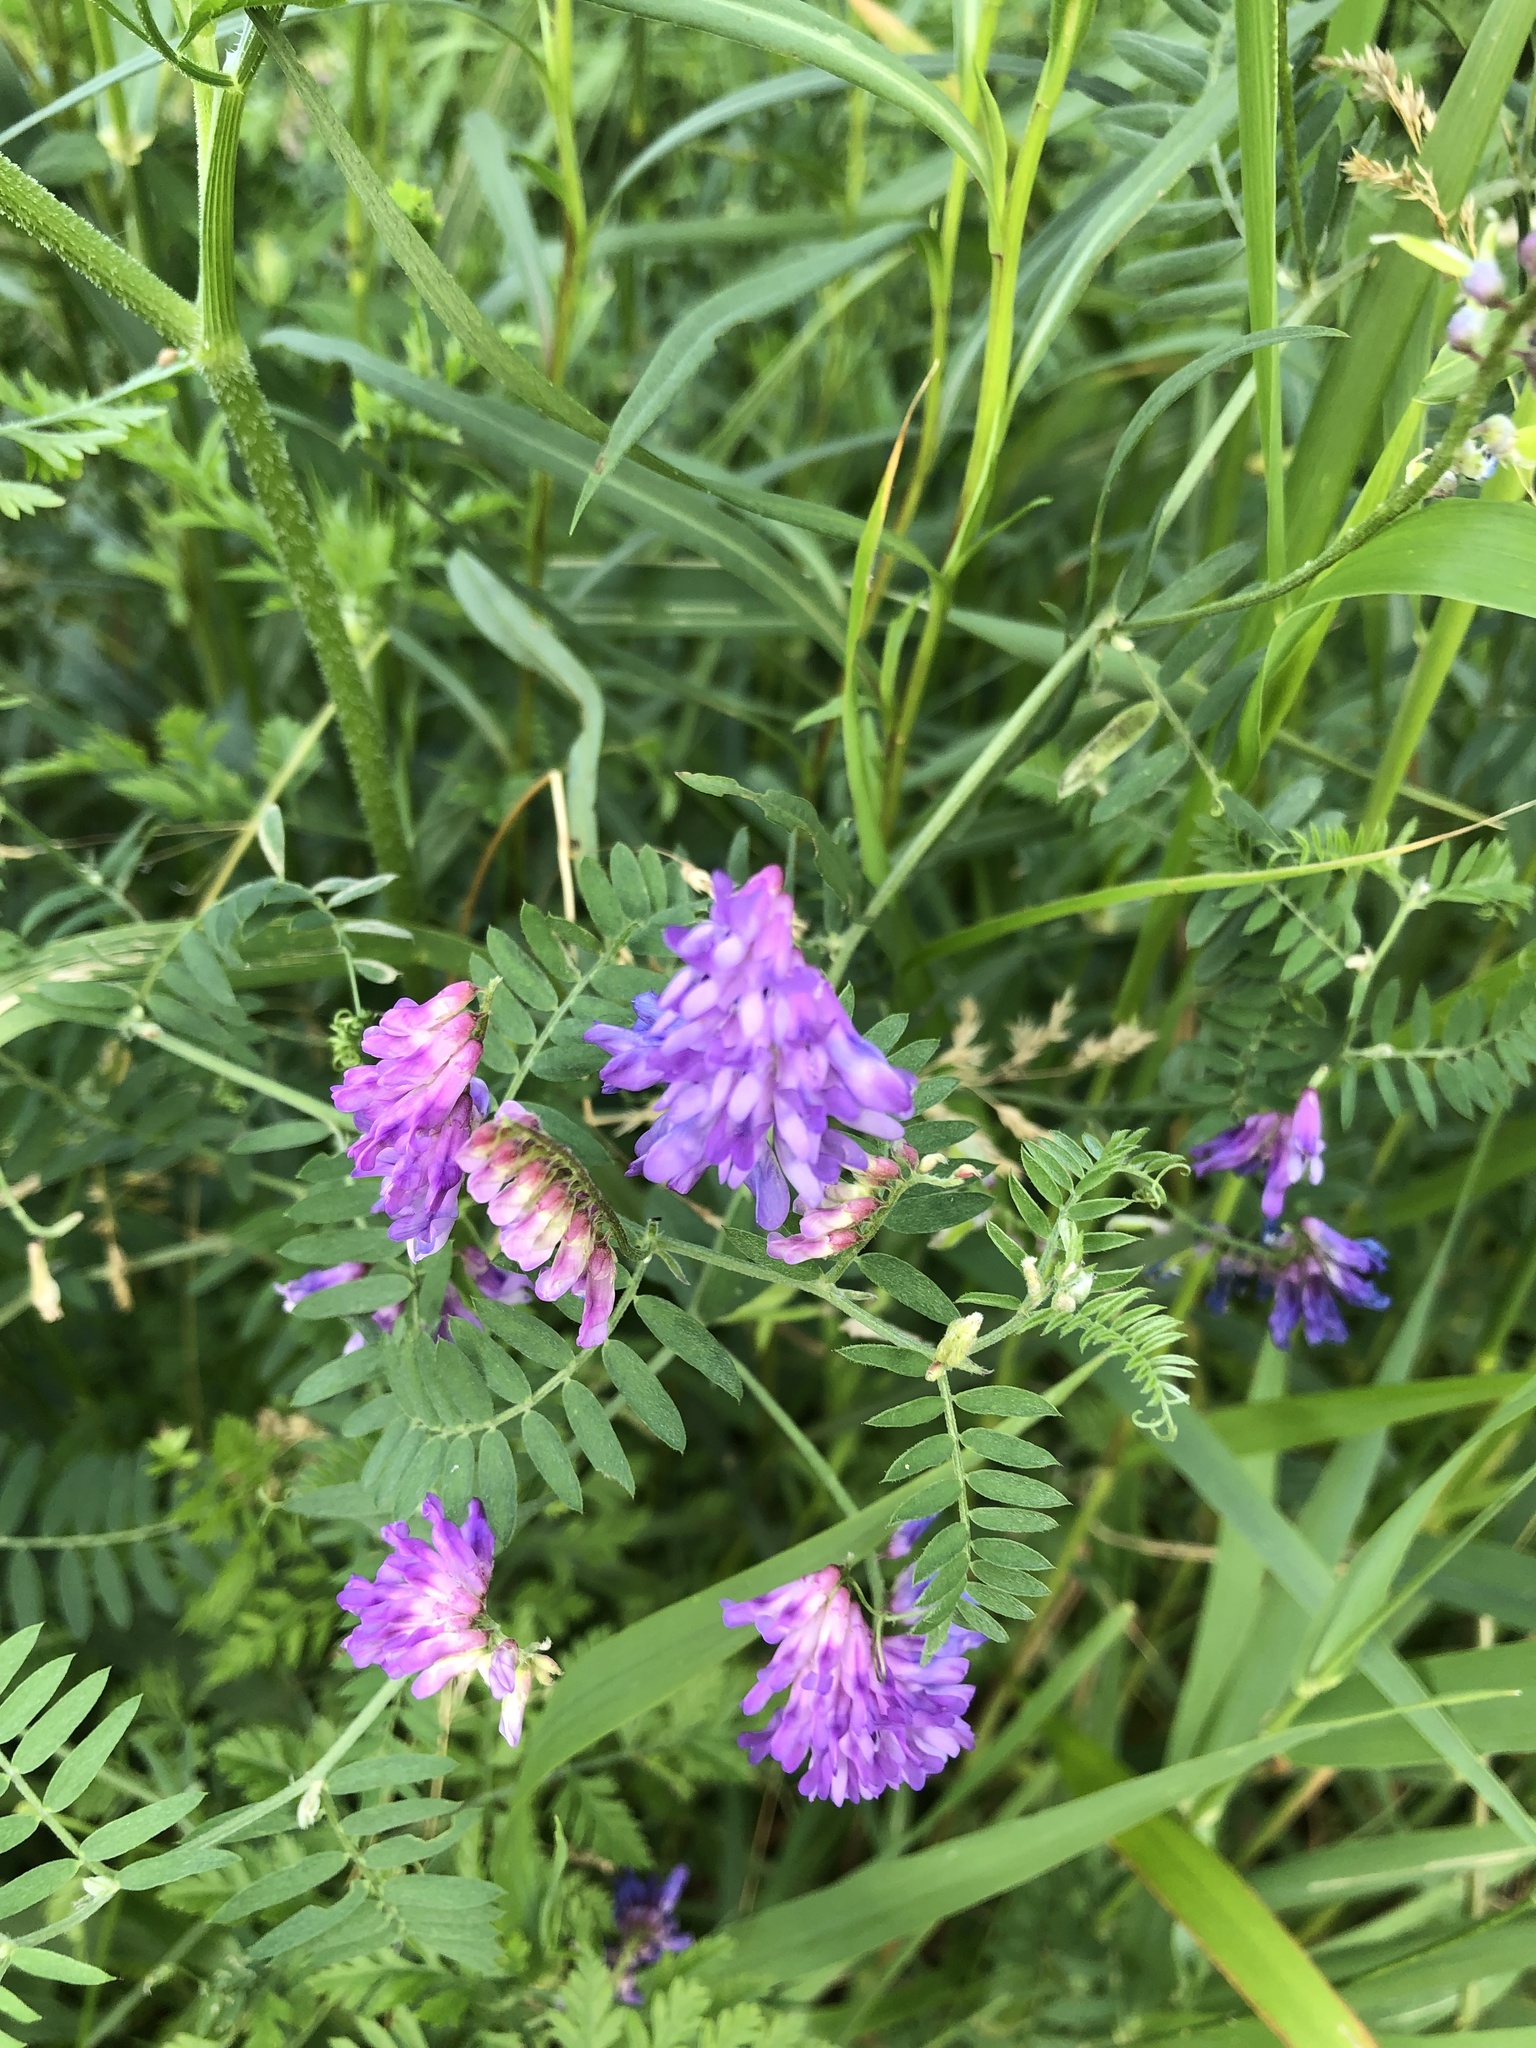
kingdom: Plantae
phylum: Tracheophyta
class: Magnoliopsida
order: Fabales
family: Fabaceae
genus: Vicia
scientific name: Vicia cracca
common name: Bird vetch
